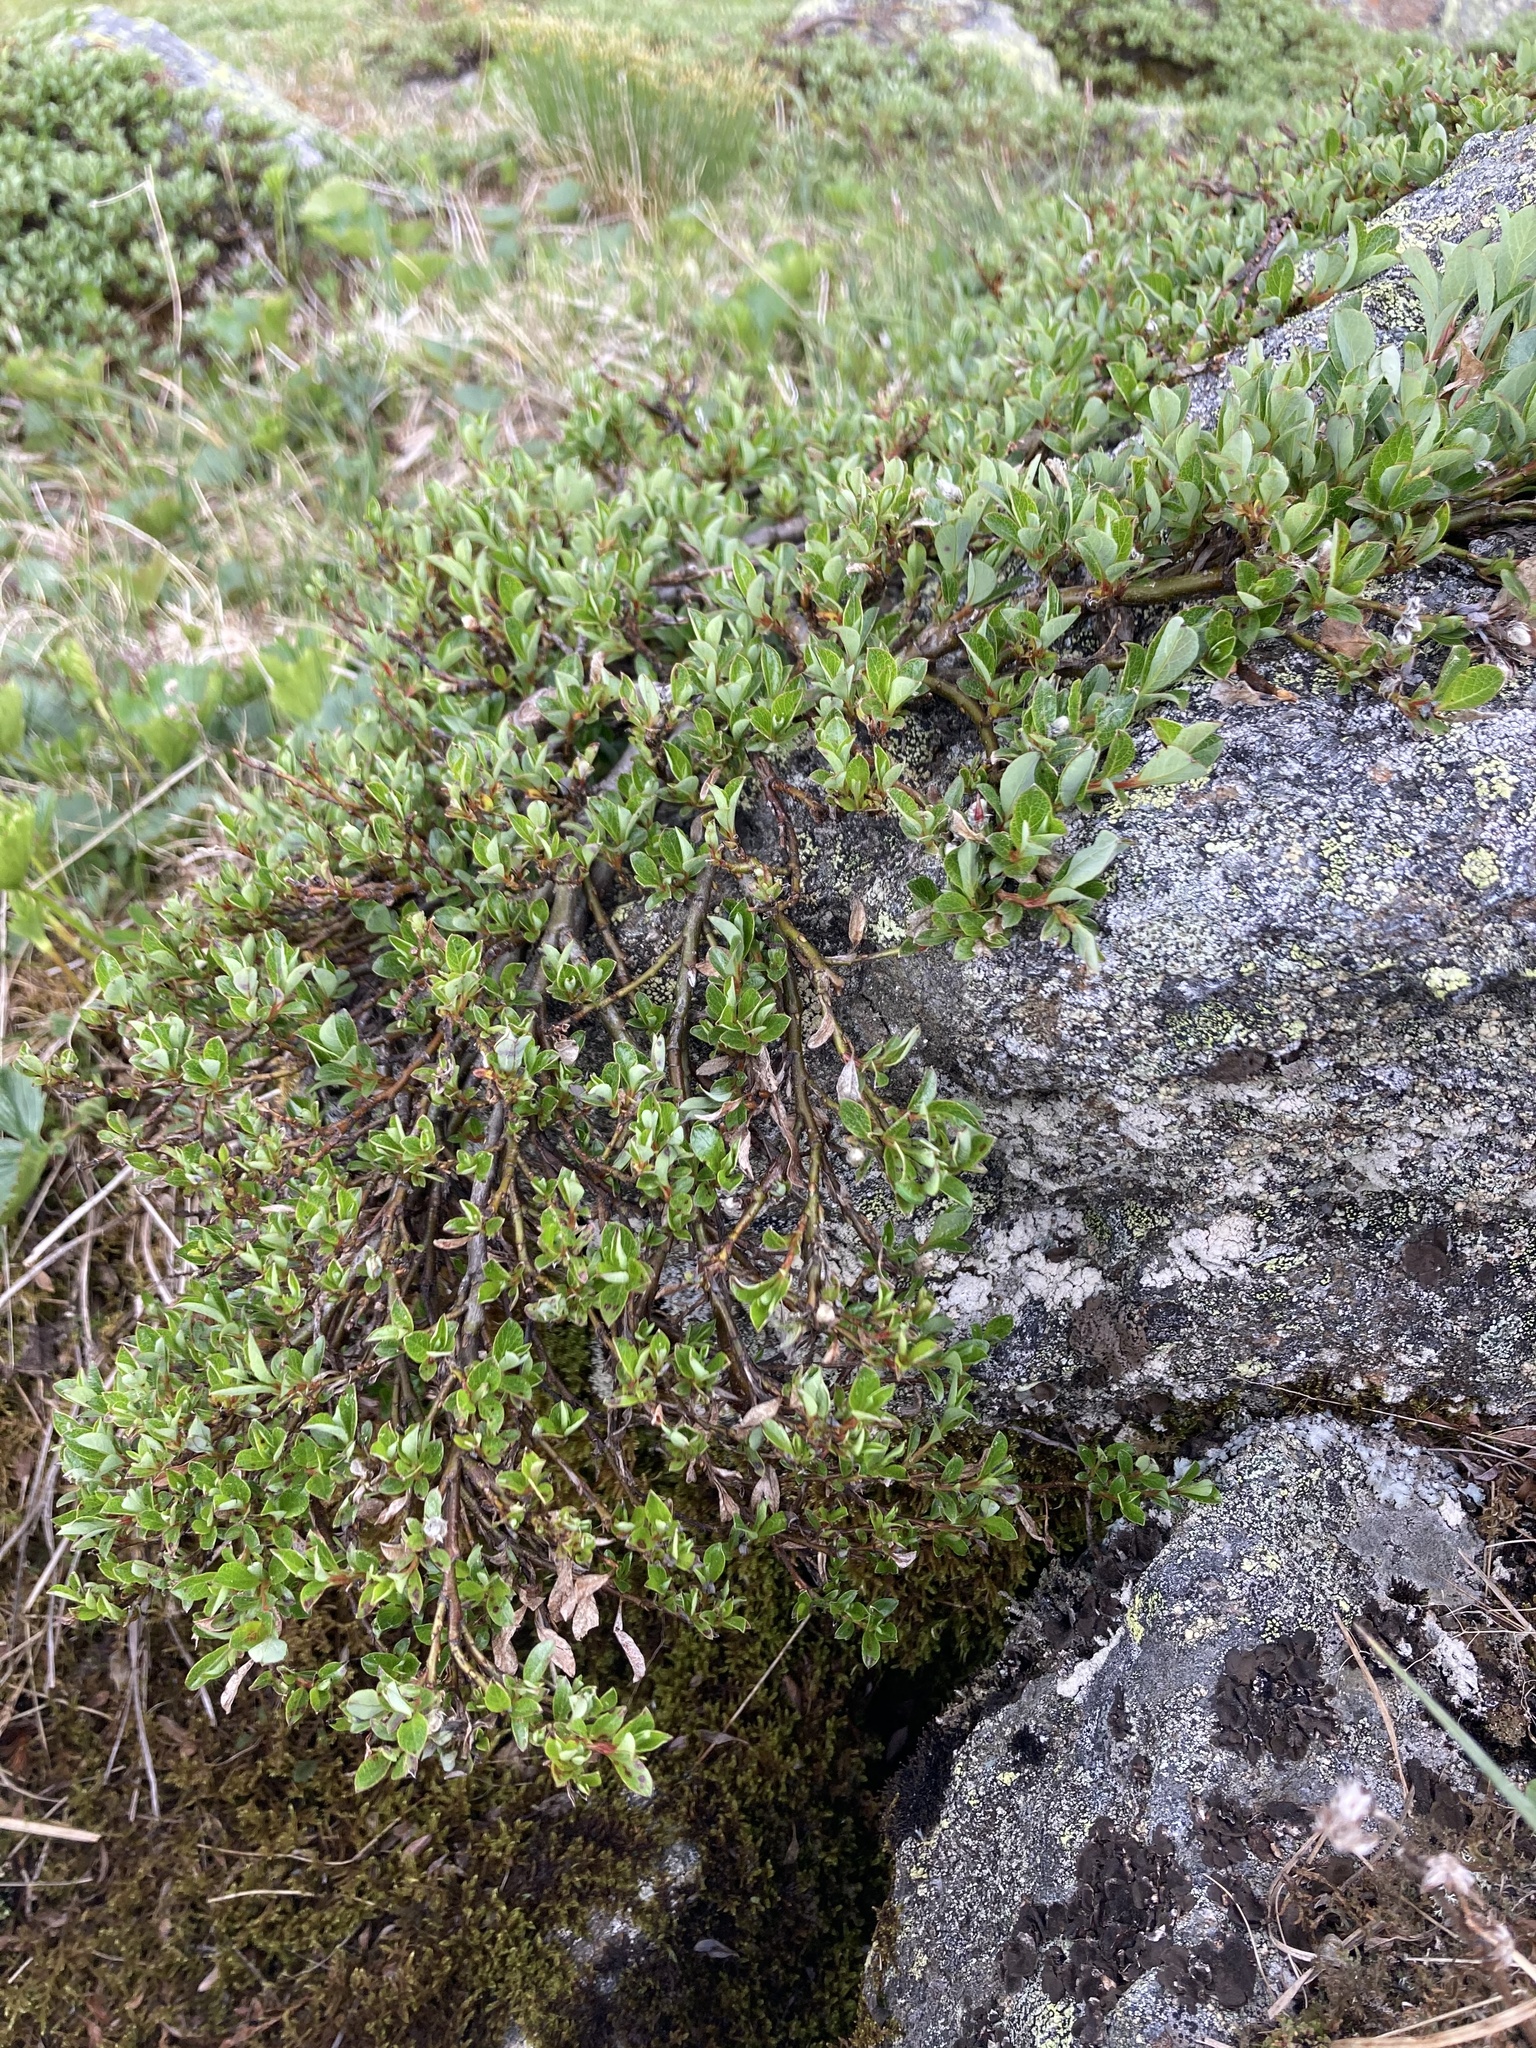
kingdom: Plantae
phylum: Tracheophyta
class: Magnoliopsida
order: Malpighiales
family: Salicaceae
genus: Salix
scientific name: Salix uva-ursi
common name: Bearberry willow
